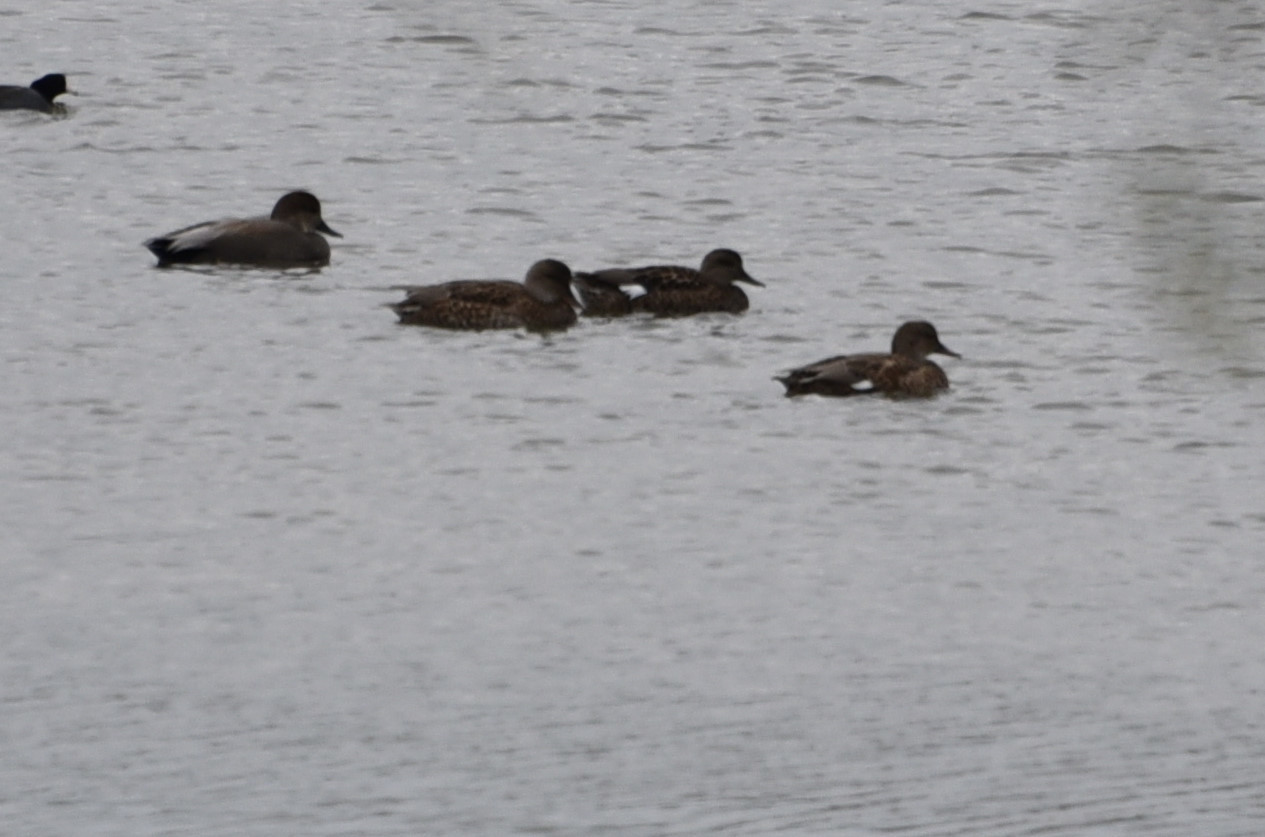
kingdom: Animalia
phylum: Chordata
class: Aves
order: Anseriformes
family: Anatidae
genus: Mareca
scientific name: Mareca strepera
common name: Gadwall
